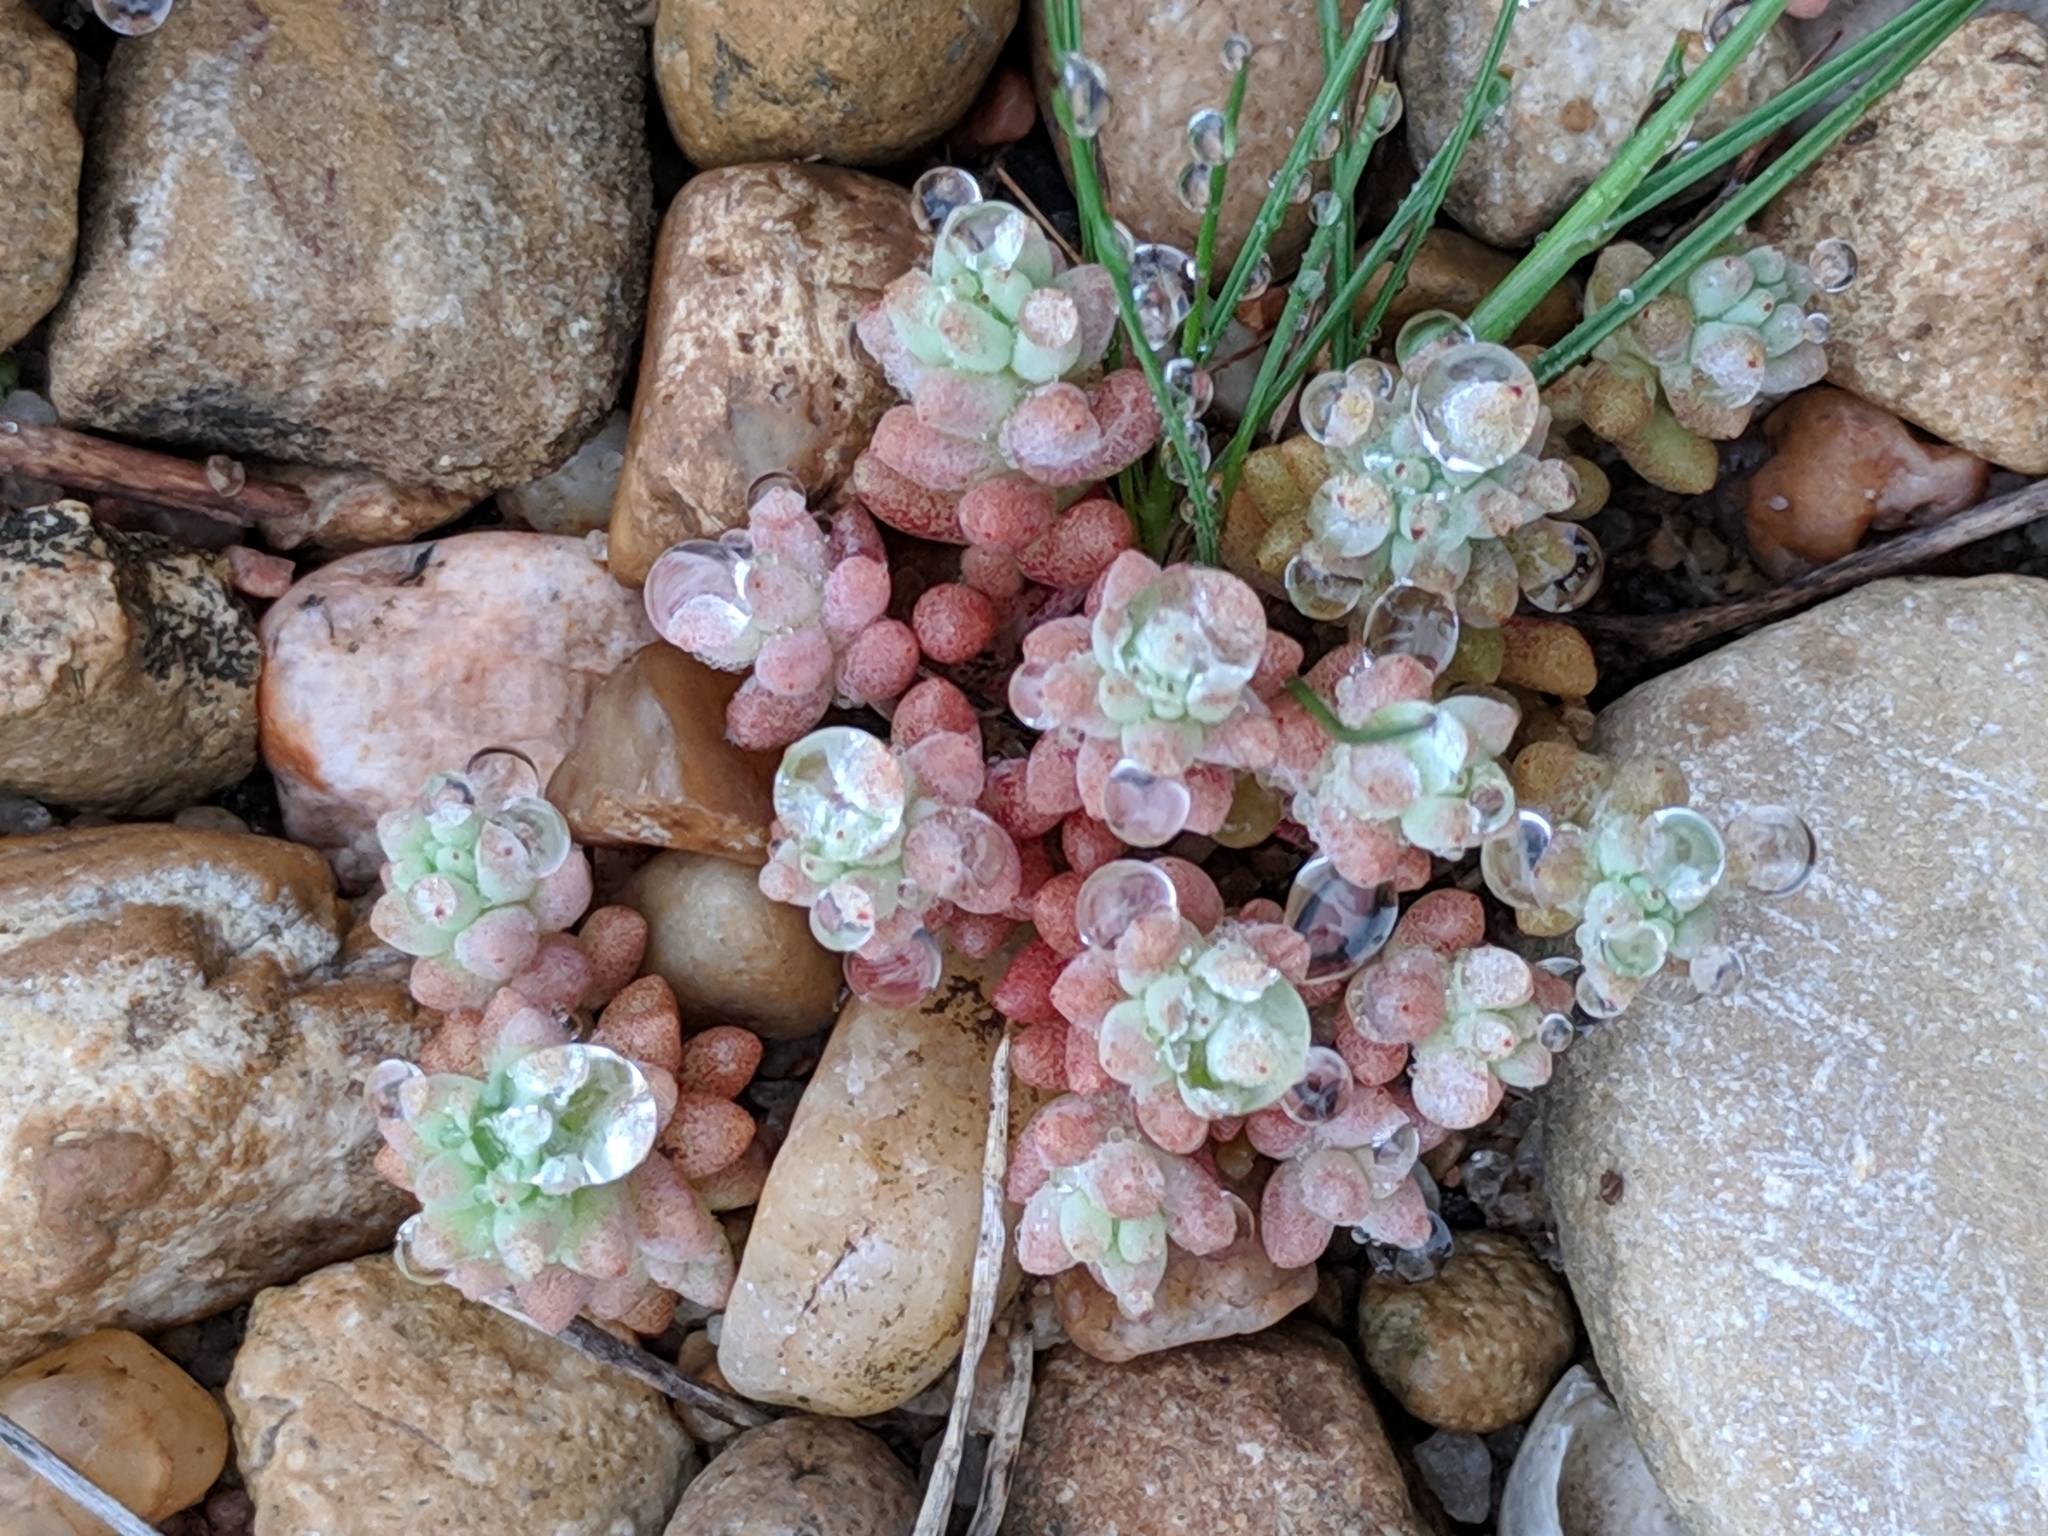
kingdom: Plantae
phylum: Tracheophyta
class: Magnoliopsida
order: Saxifragales
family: Crassulaceae
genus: Sedum
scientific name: Sedum nuttallii
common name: Yellow stonecrop
